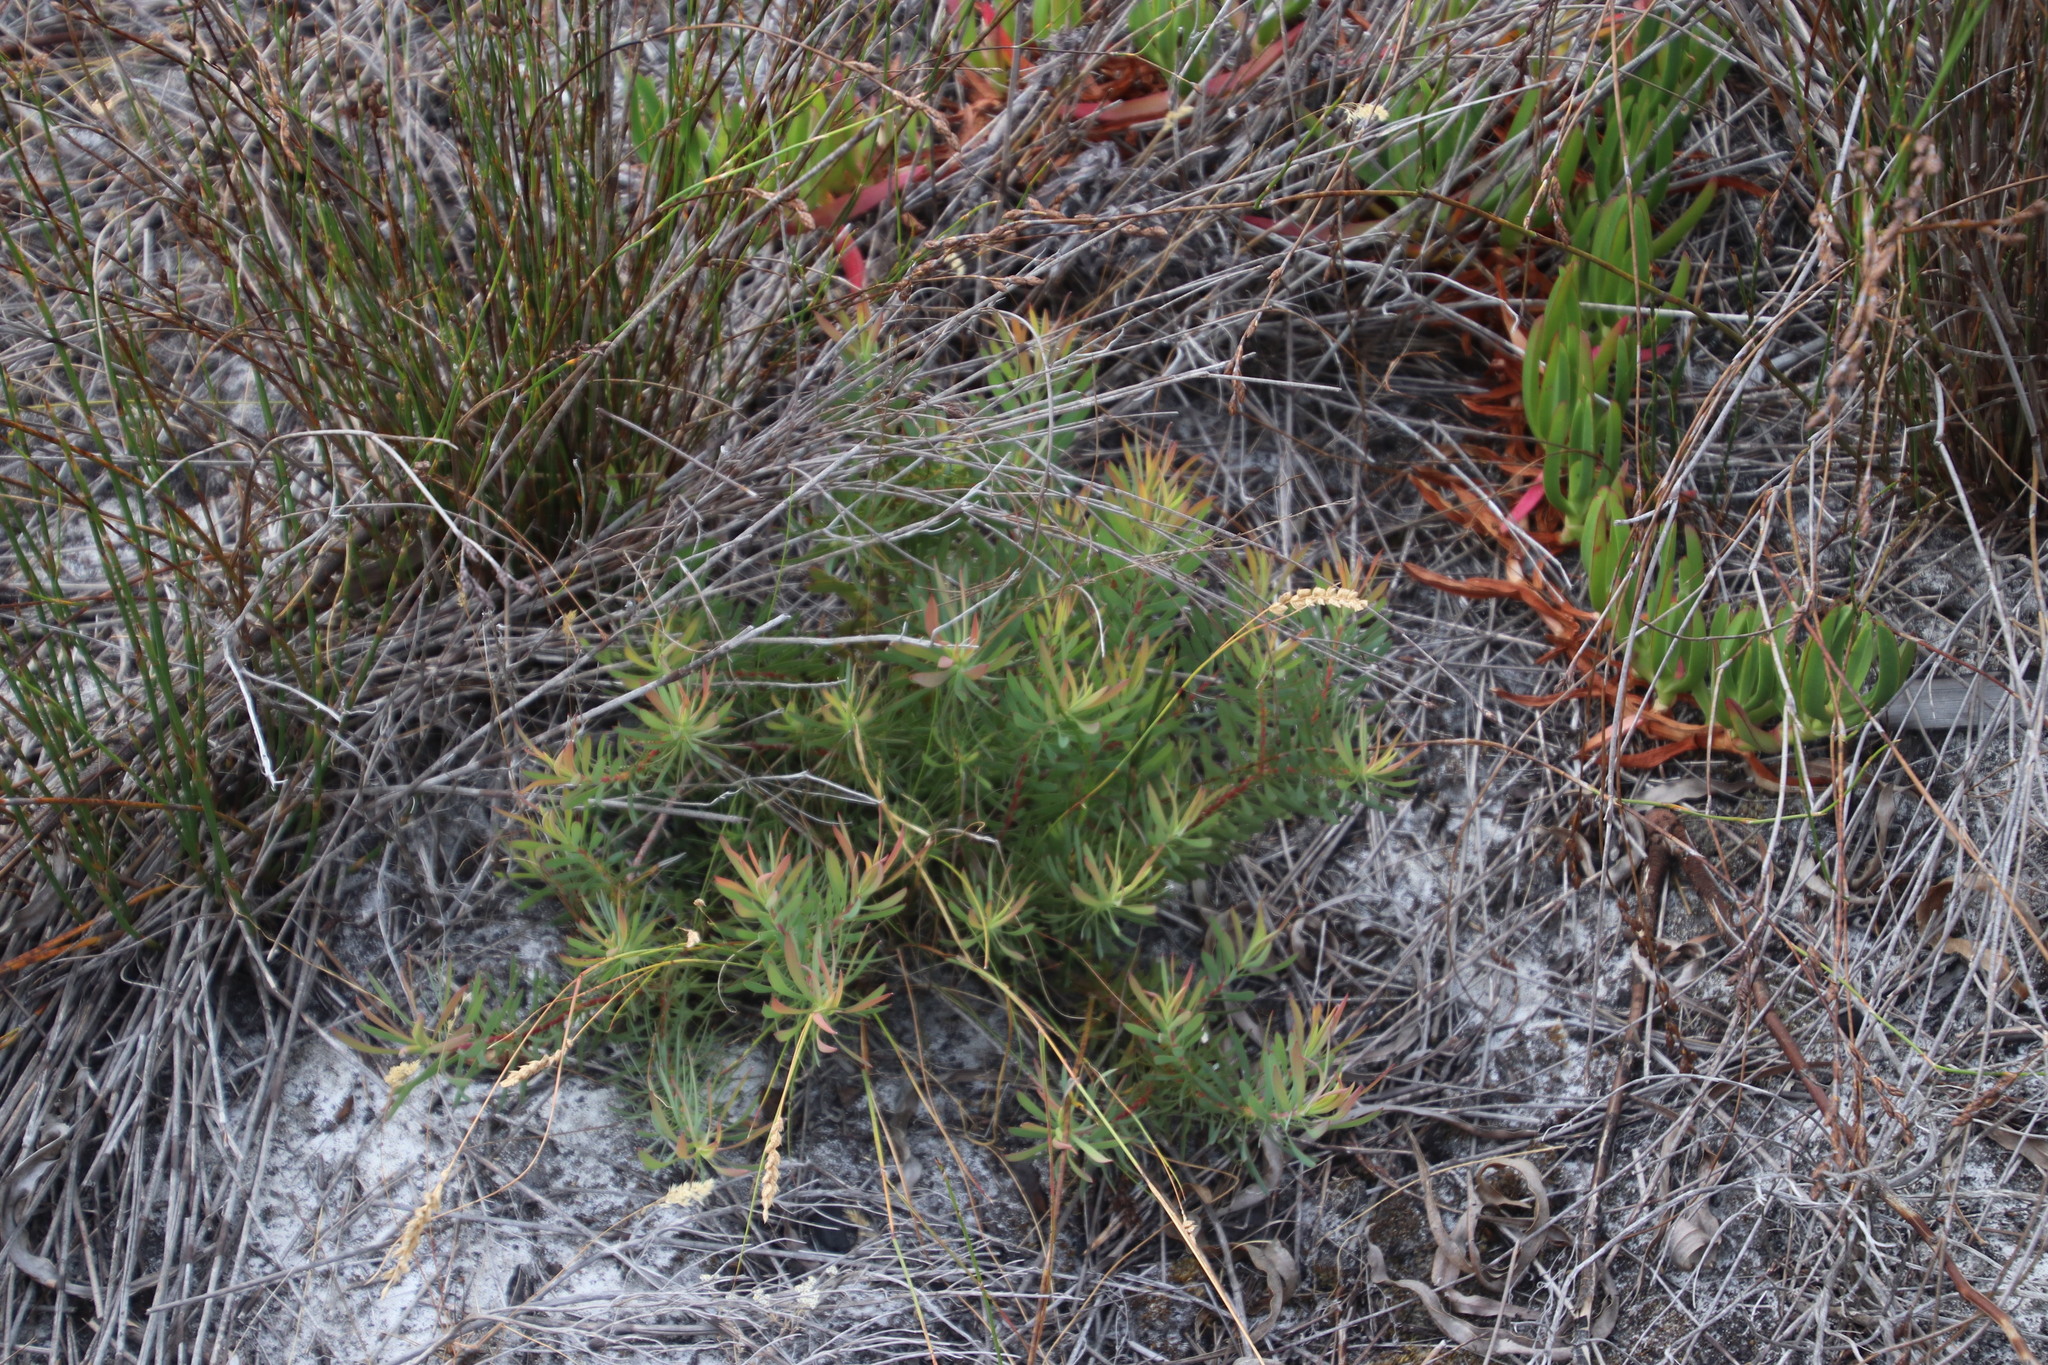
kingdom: Plantae
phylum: Tracheophyta
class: Magnoliopsida
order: Proteales
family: Proteaceae
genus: Leucadendron
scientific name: Leucadendron salignum
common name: Common sunshine conebush
